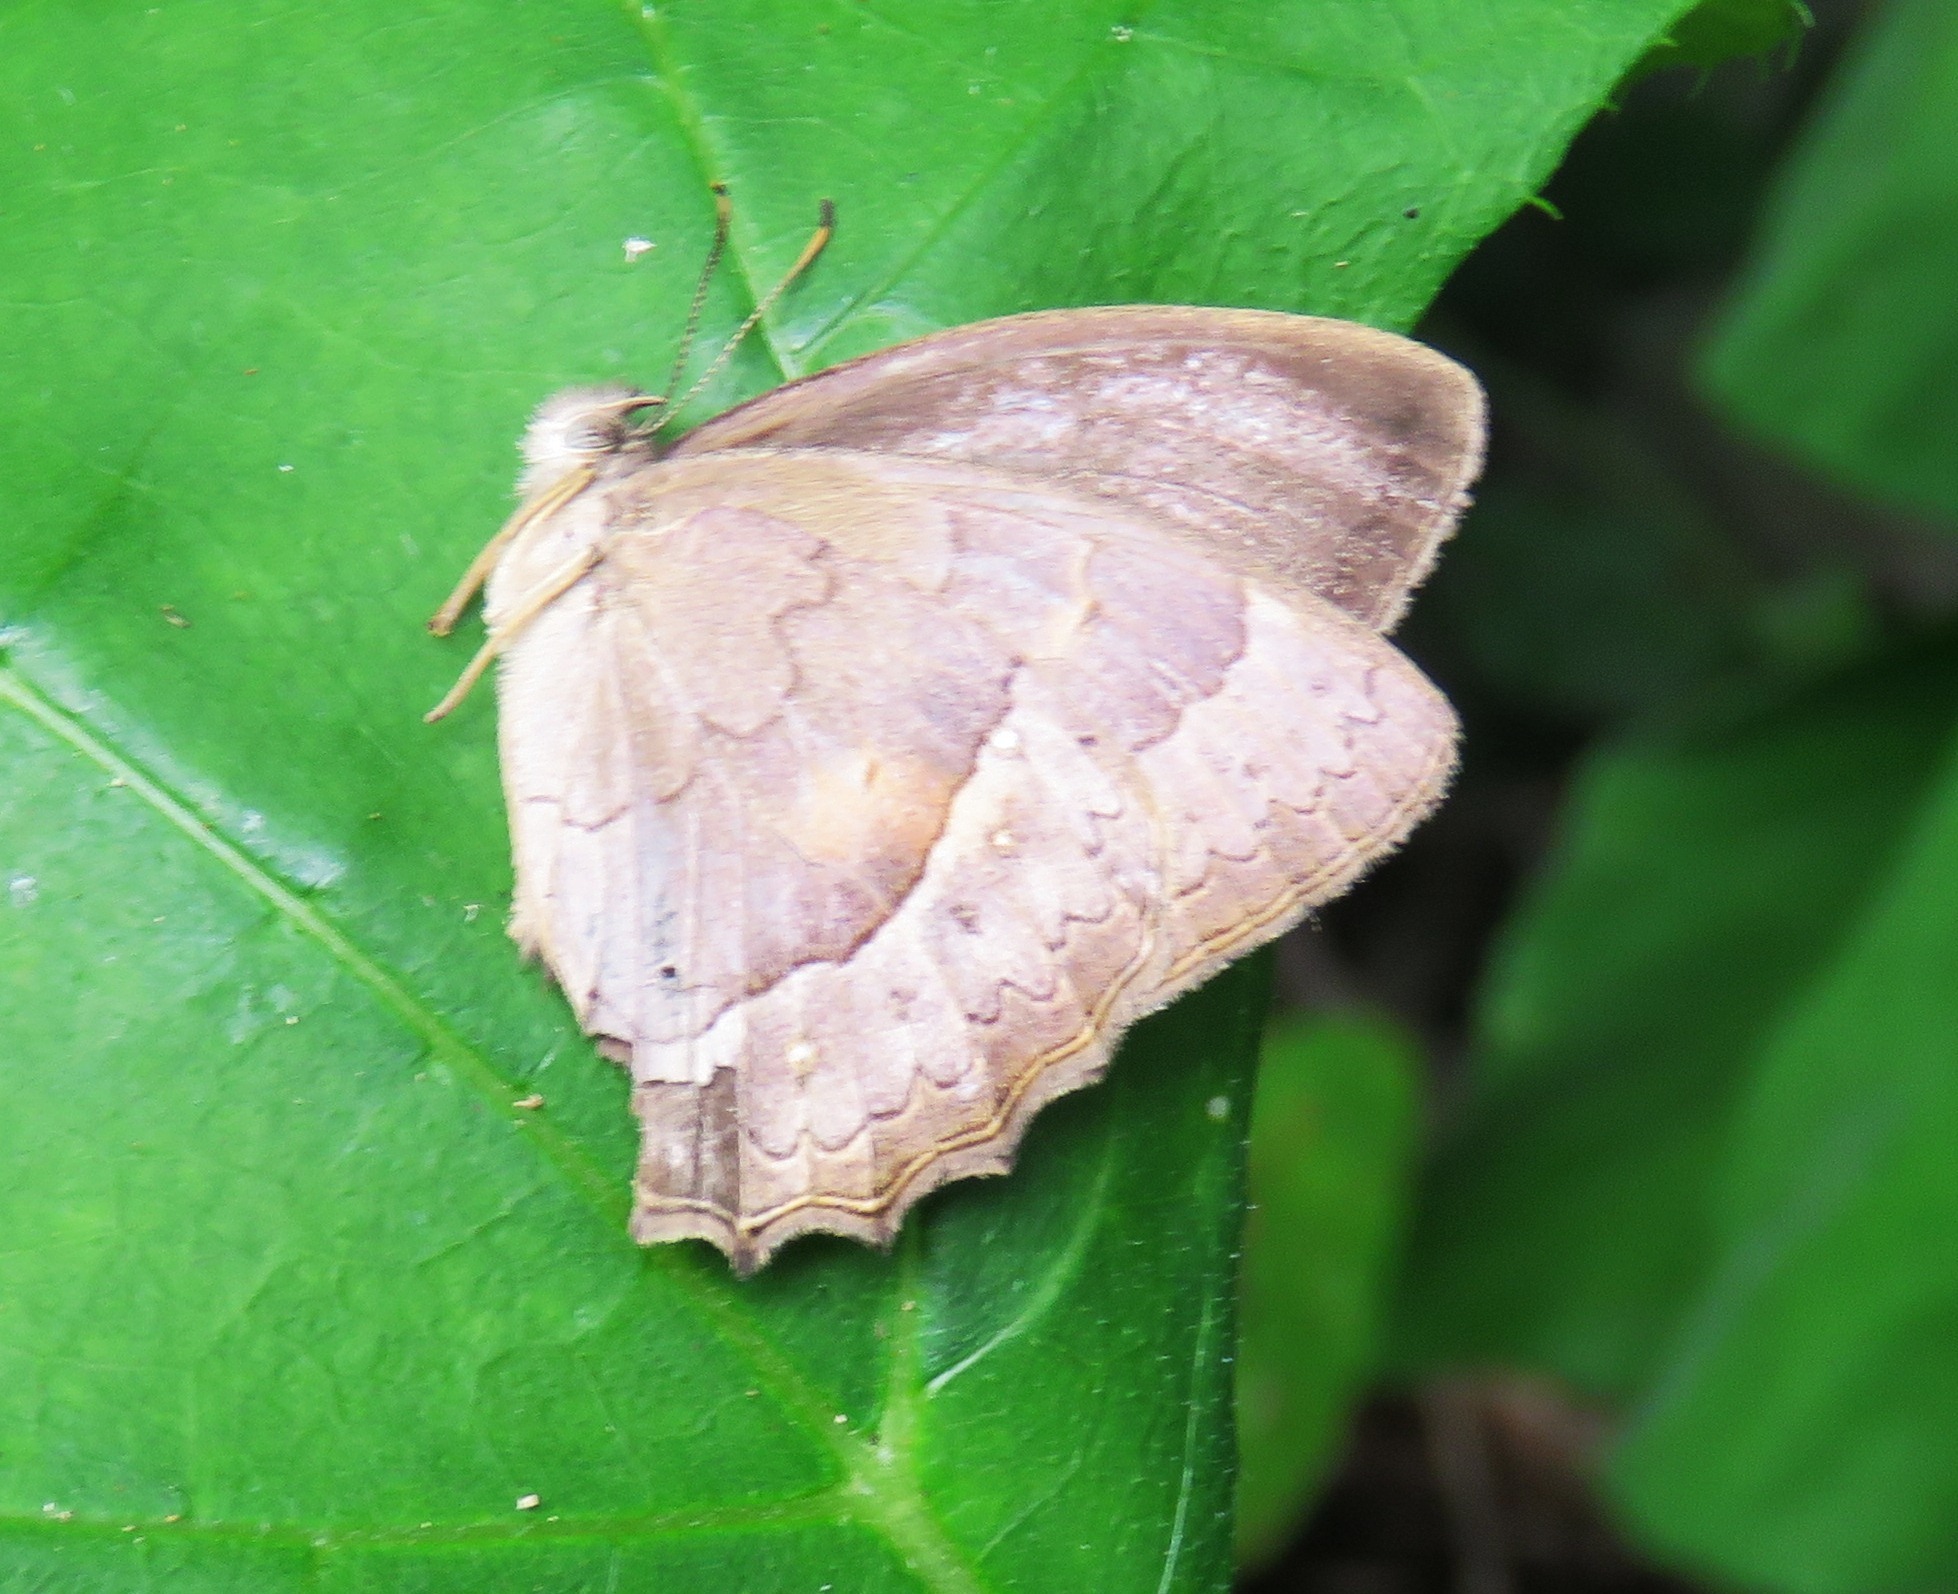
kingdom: Animalia
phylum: Arthropoda
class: Insecta
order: Lepidoptera
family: Nymphalidae
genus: Taygetina
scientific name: Taygetina kerea
